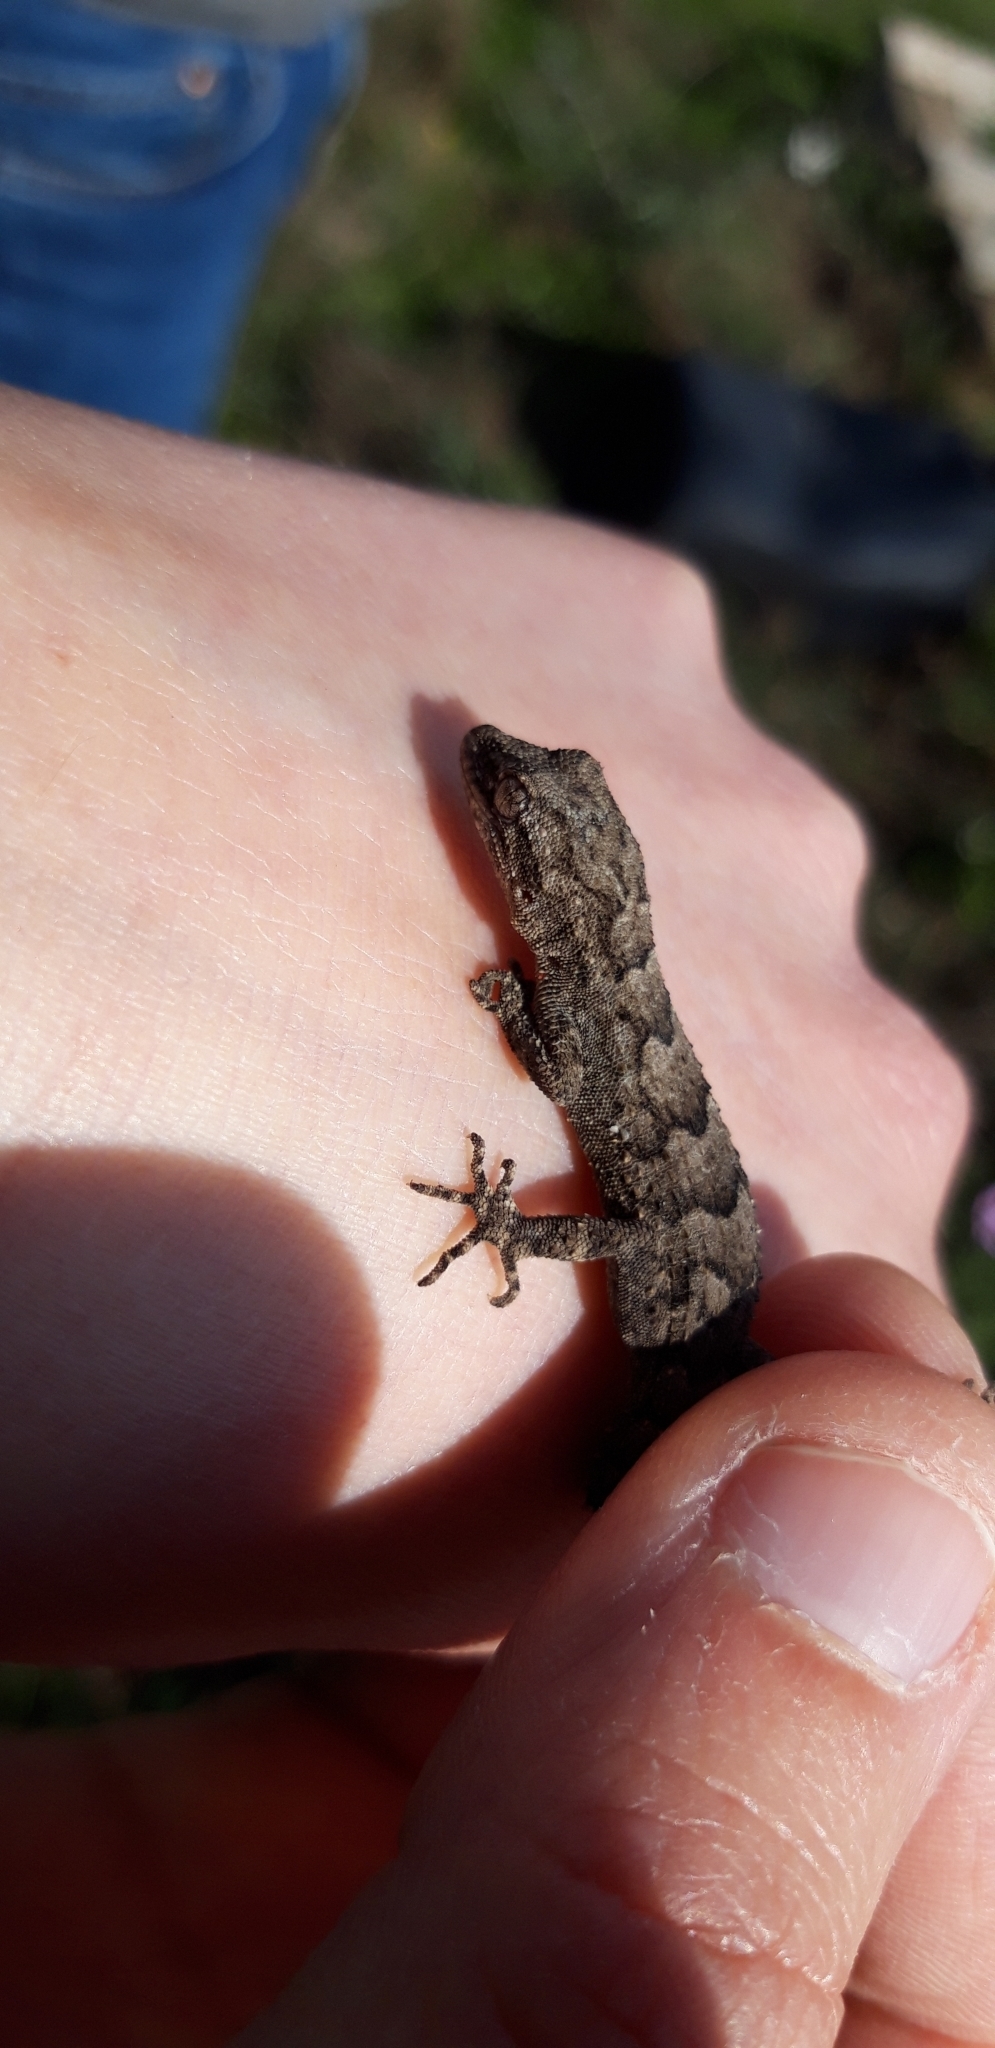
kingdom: Animalia
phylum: Chordata
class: Squamata
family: Gekkonidae
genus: Mediodactylus
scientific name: Mediodactylus orientalis
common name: Mediterranean thin-toed gecko
